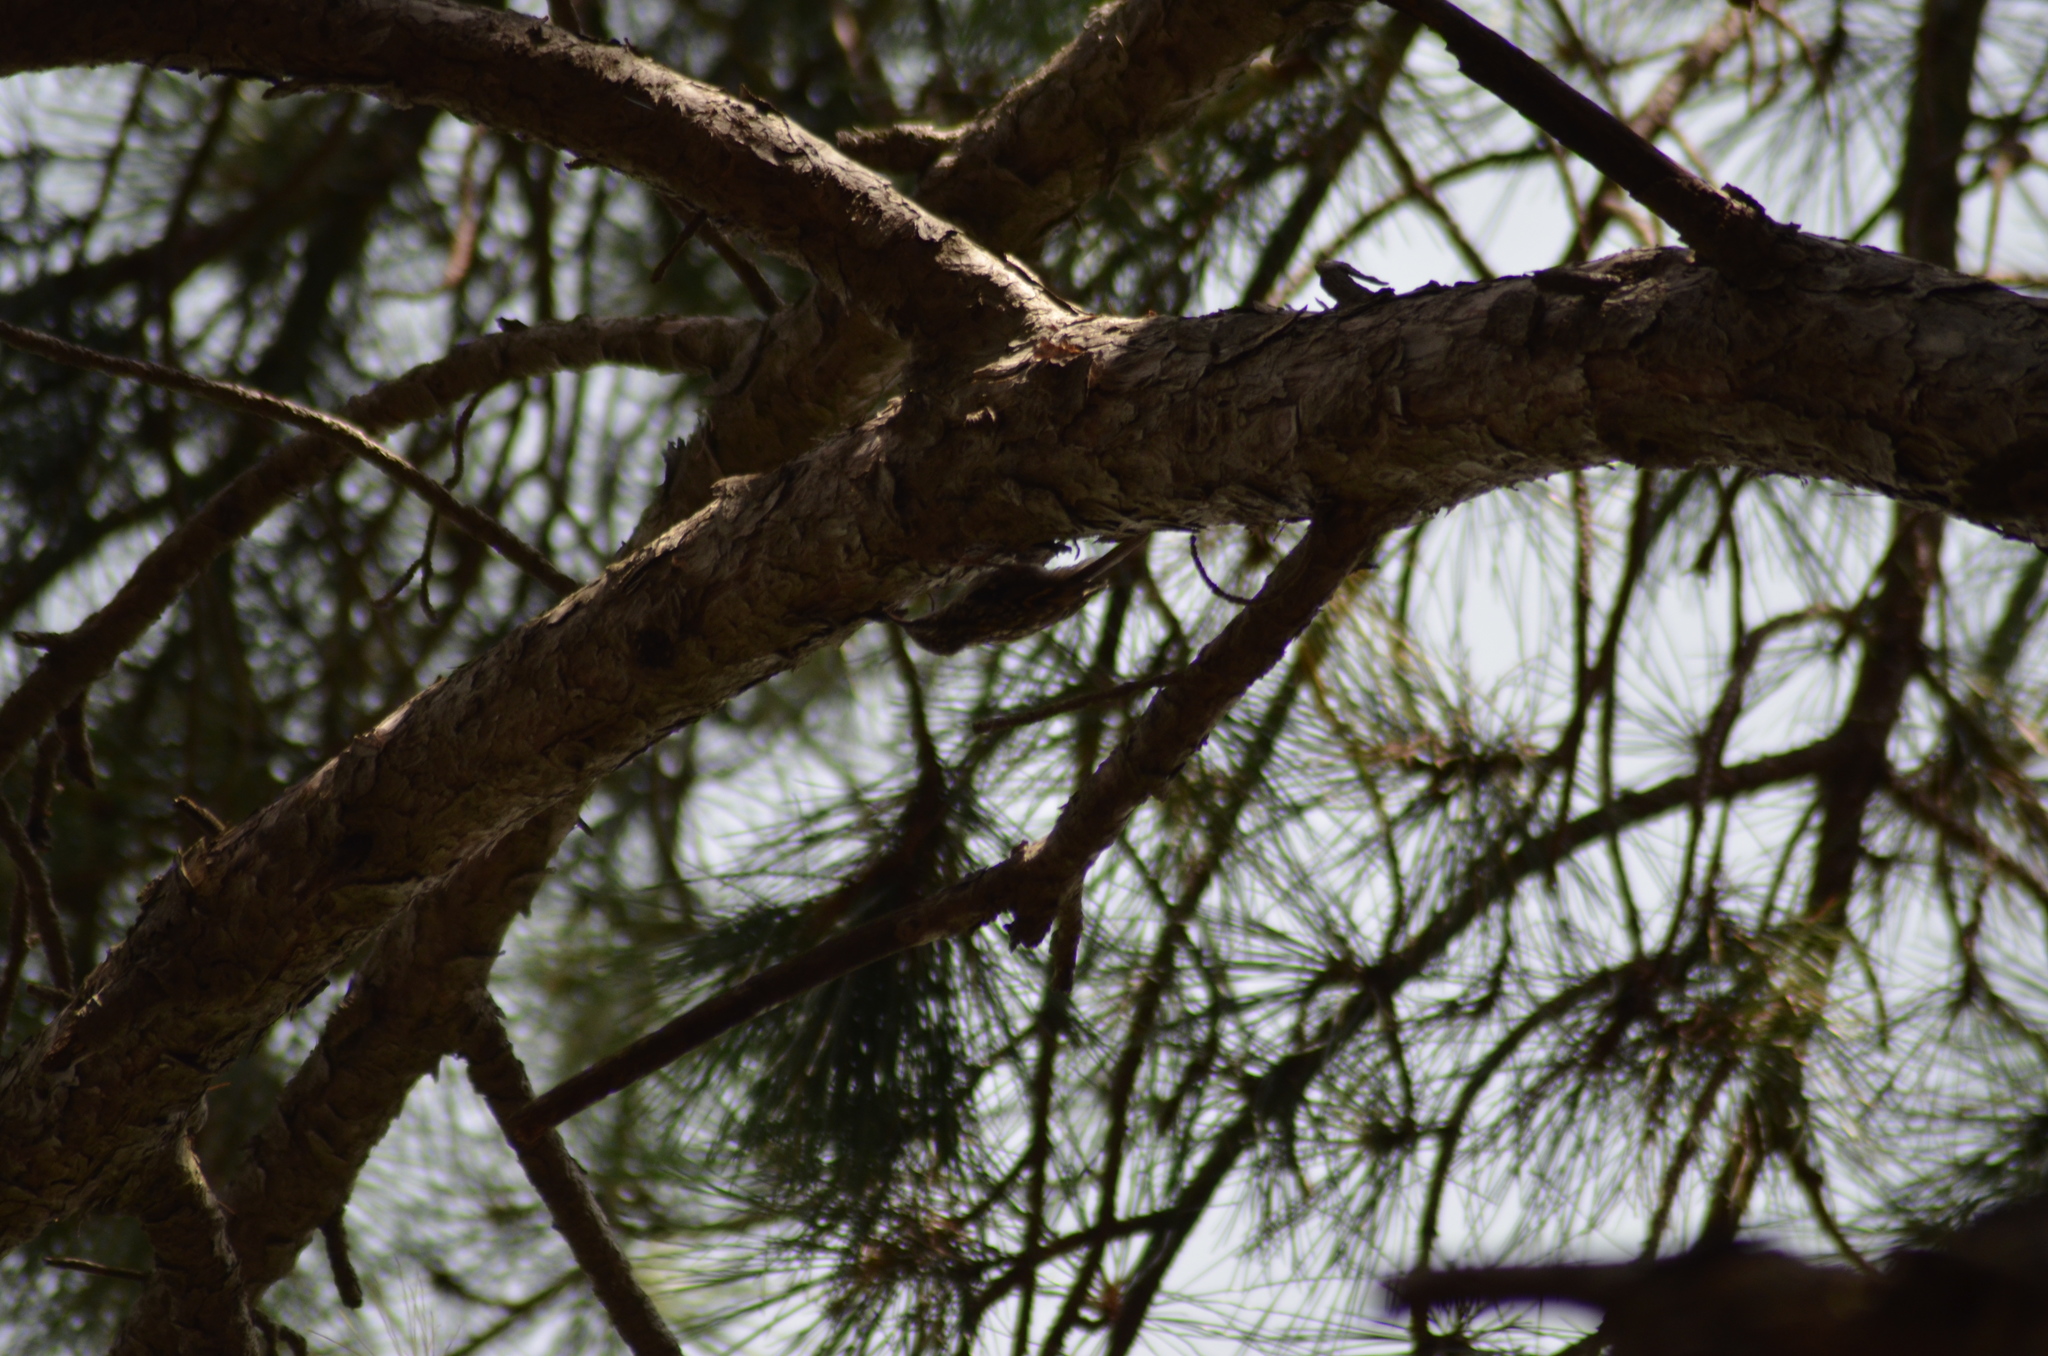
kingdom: Animalia
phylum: Chordata
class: Aves
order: Passeriformes
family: Certhiidae
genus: Certhia
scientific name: Certhia brachydactyla
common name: Short-toed treecreeper
